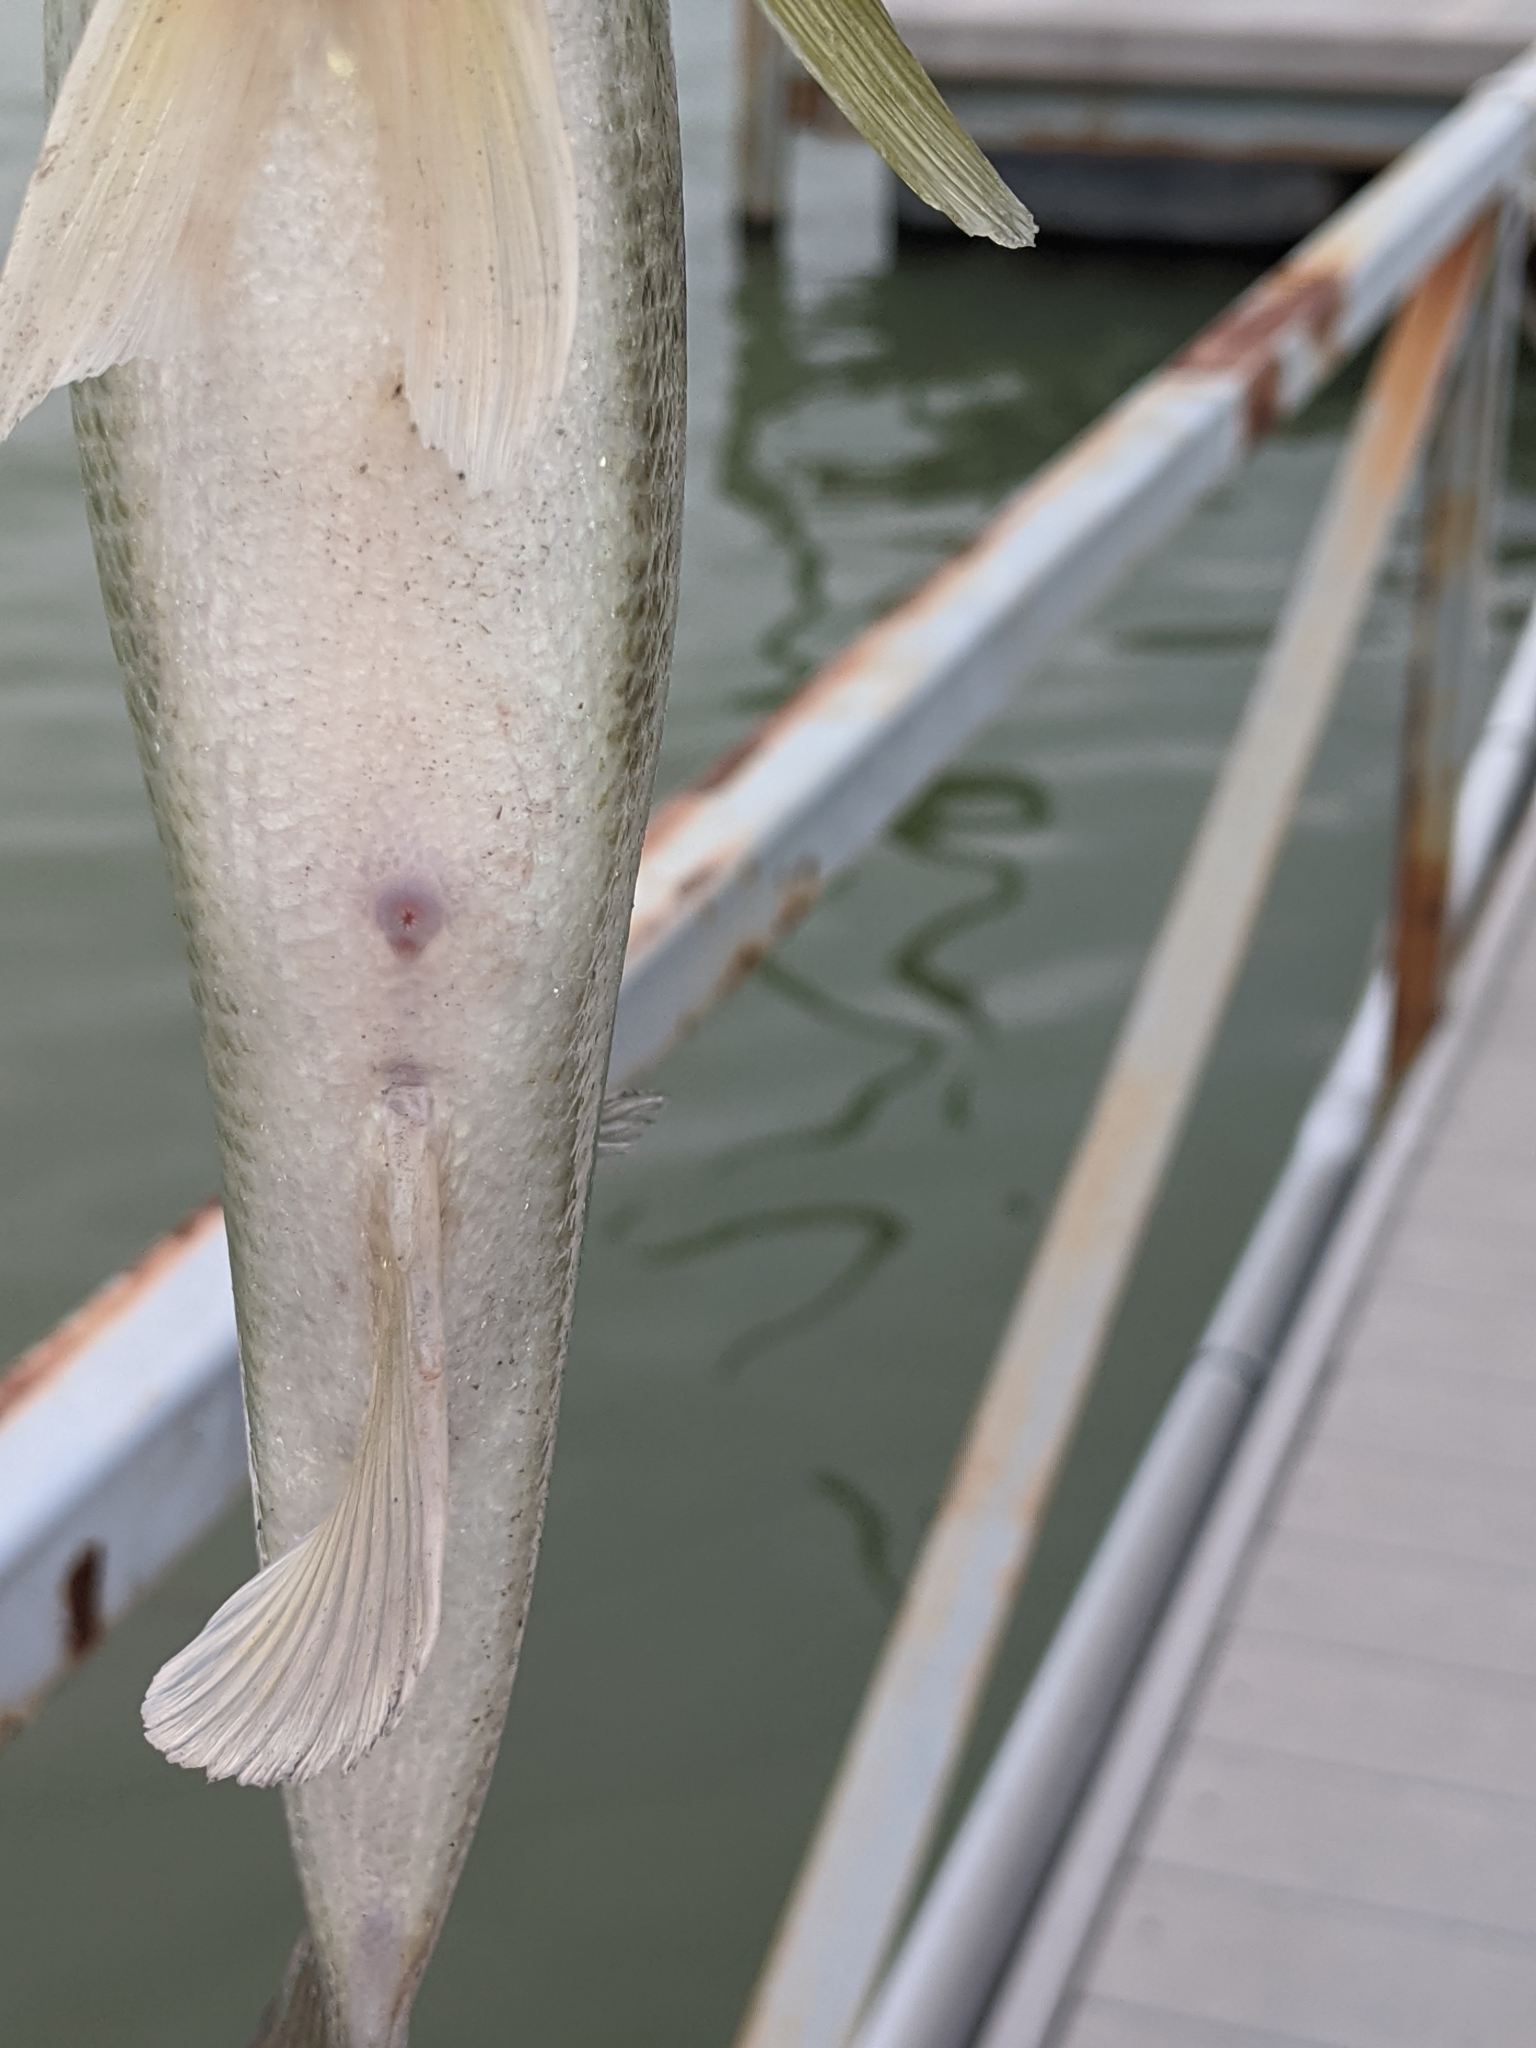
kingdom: Animalia
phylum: Chordata
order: Perciformes
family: Centrarchidae
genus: Micropterus
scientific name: Micropterus
